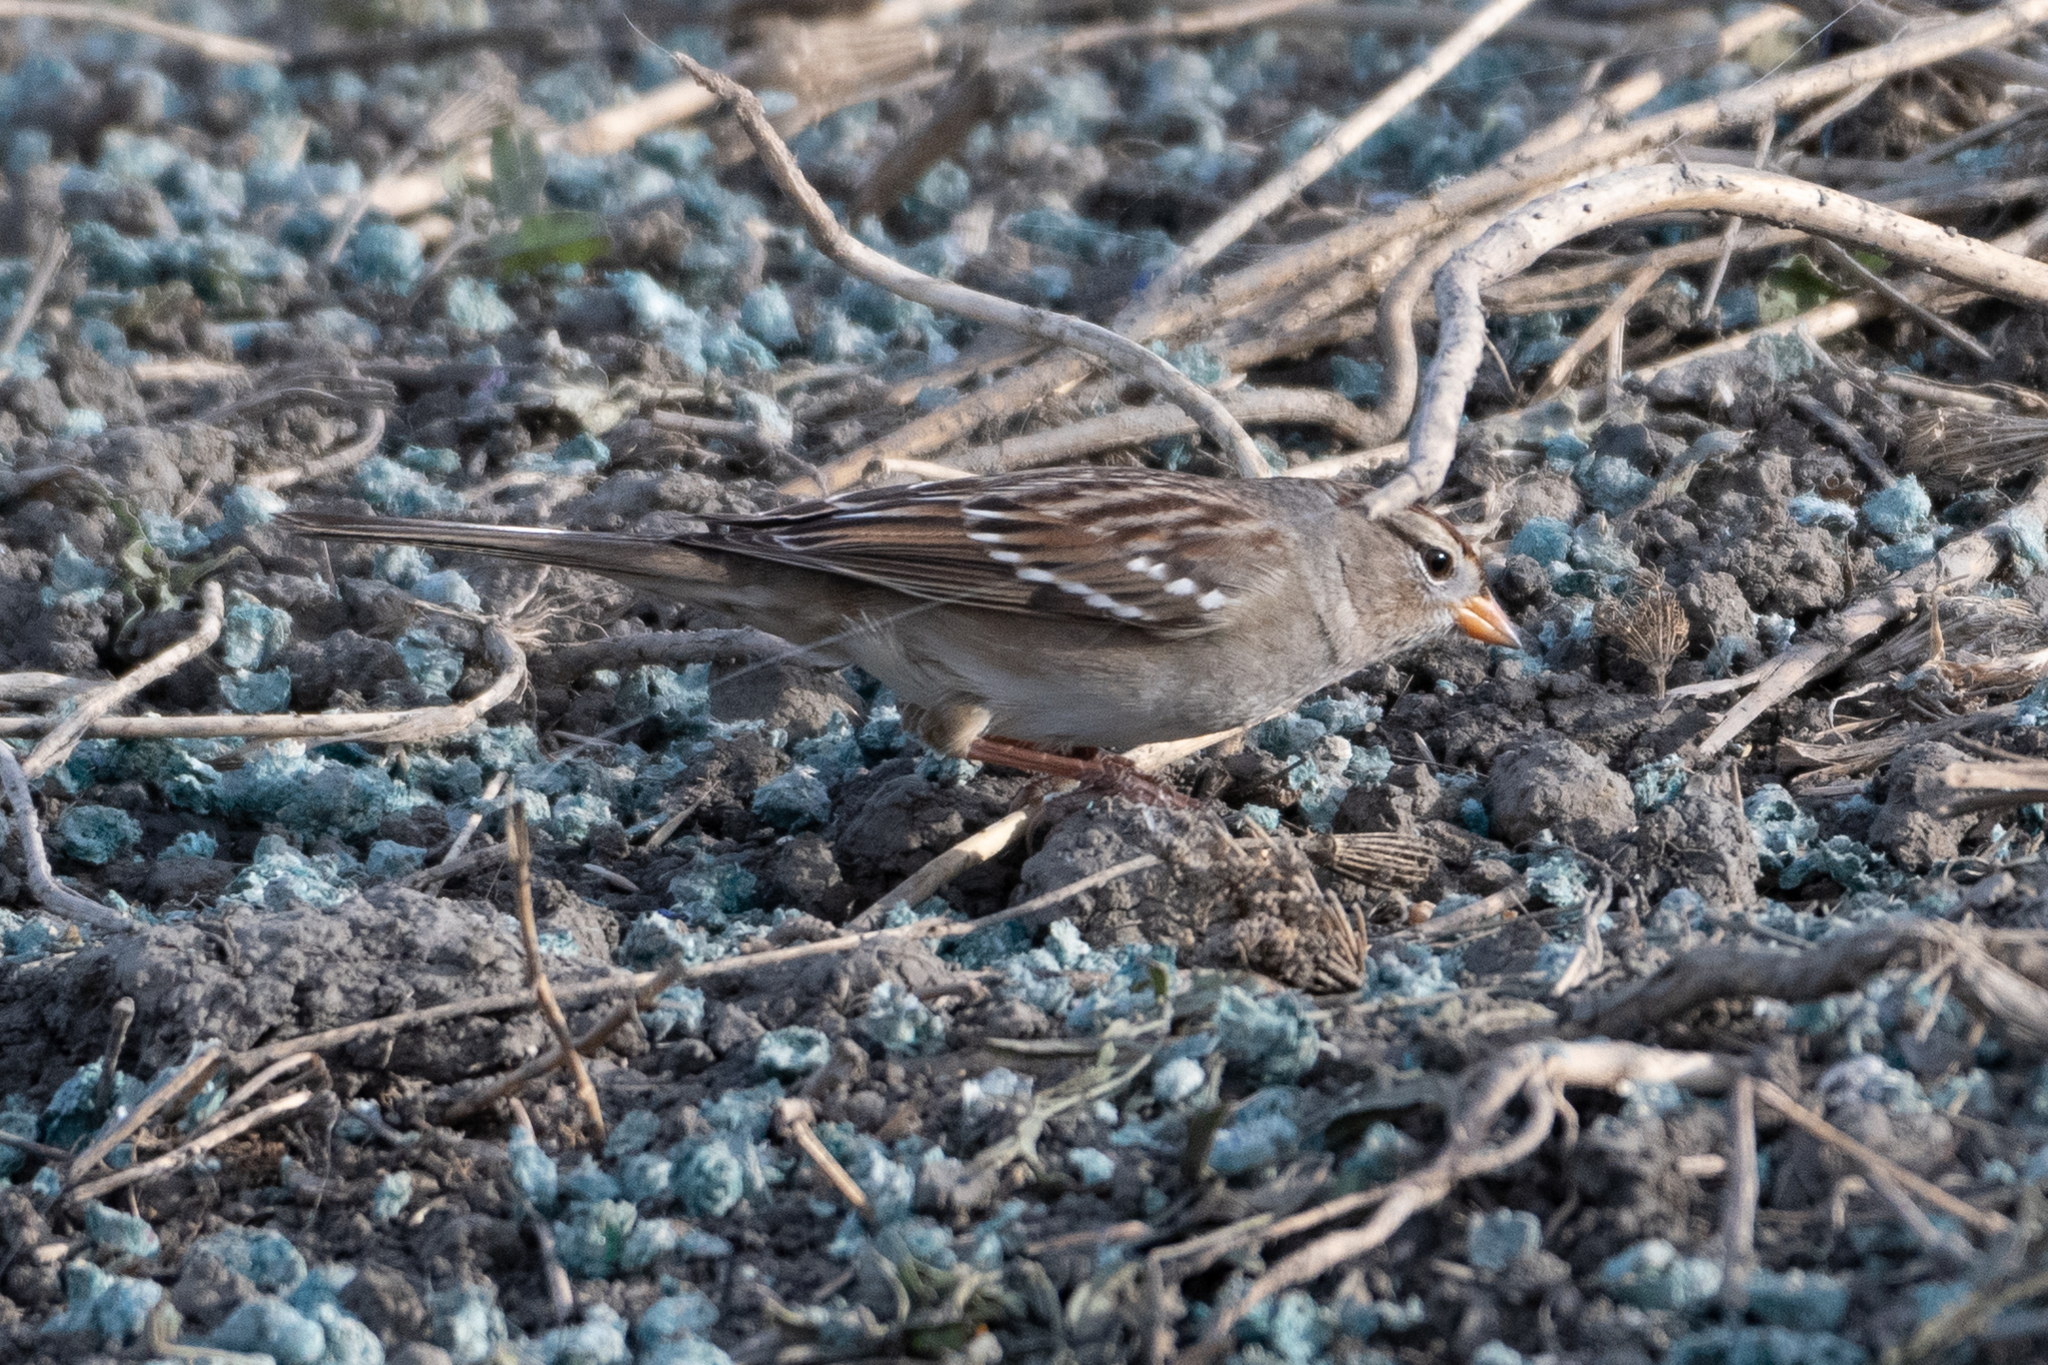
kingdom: Animalia
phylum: Chordata
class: Aves
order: Passeriformes
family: Passerellidae
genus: Zonotrichia
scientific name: Zonotrichia leucophrys
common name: White-crowned sparrow
